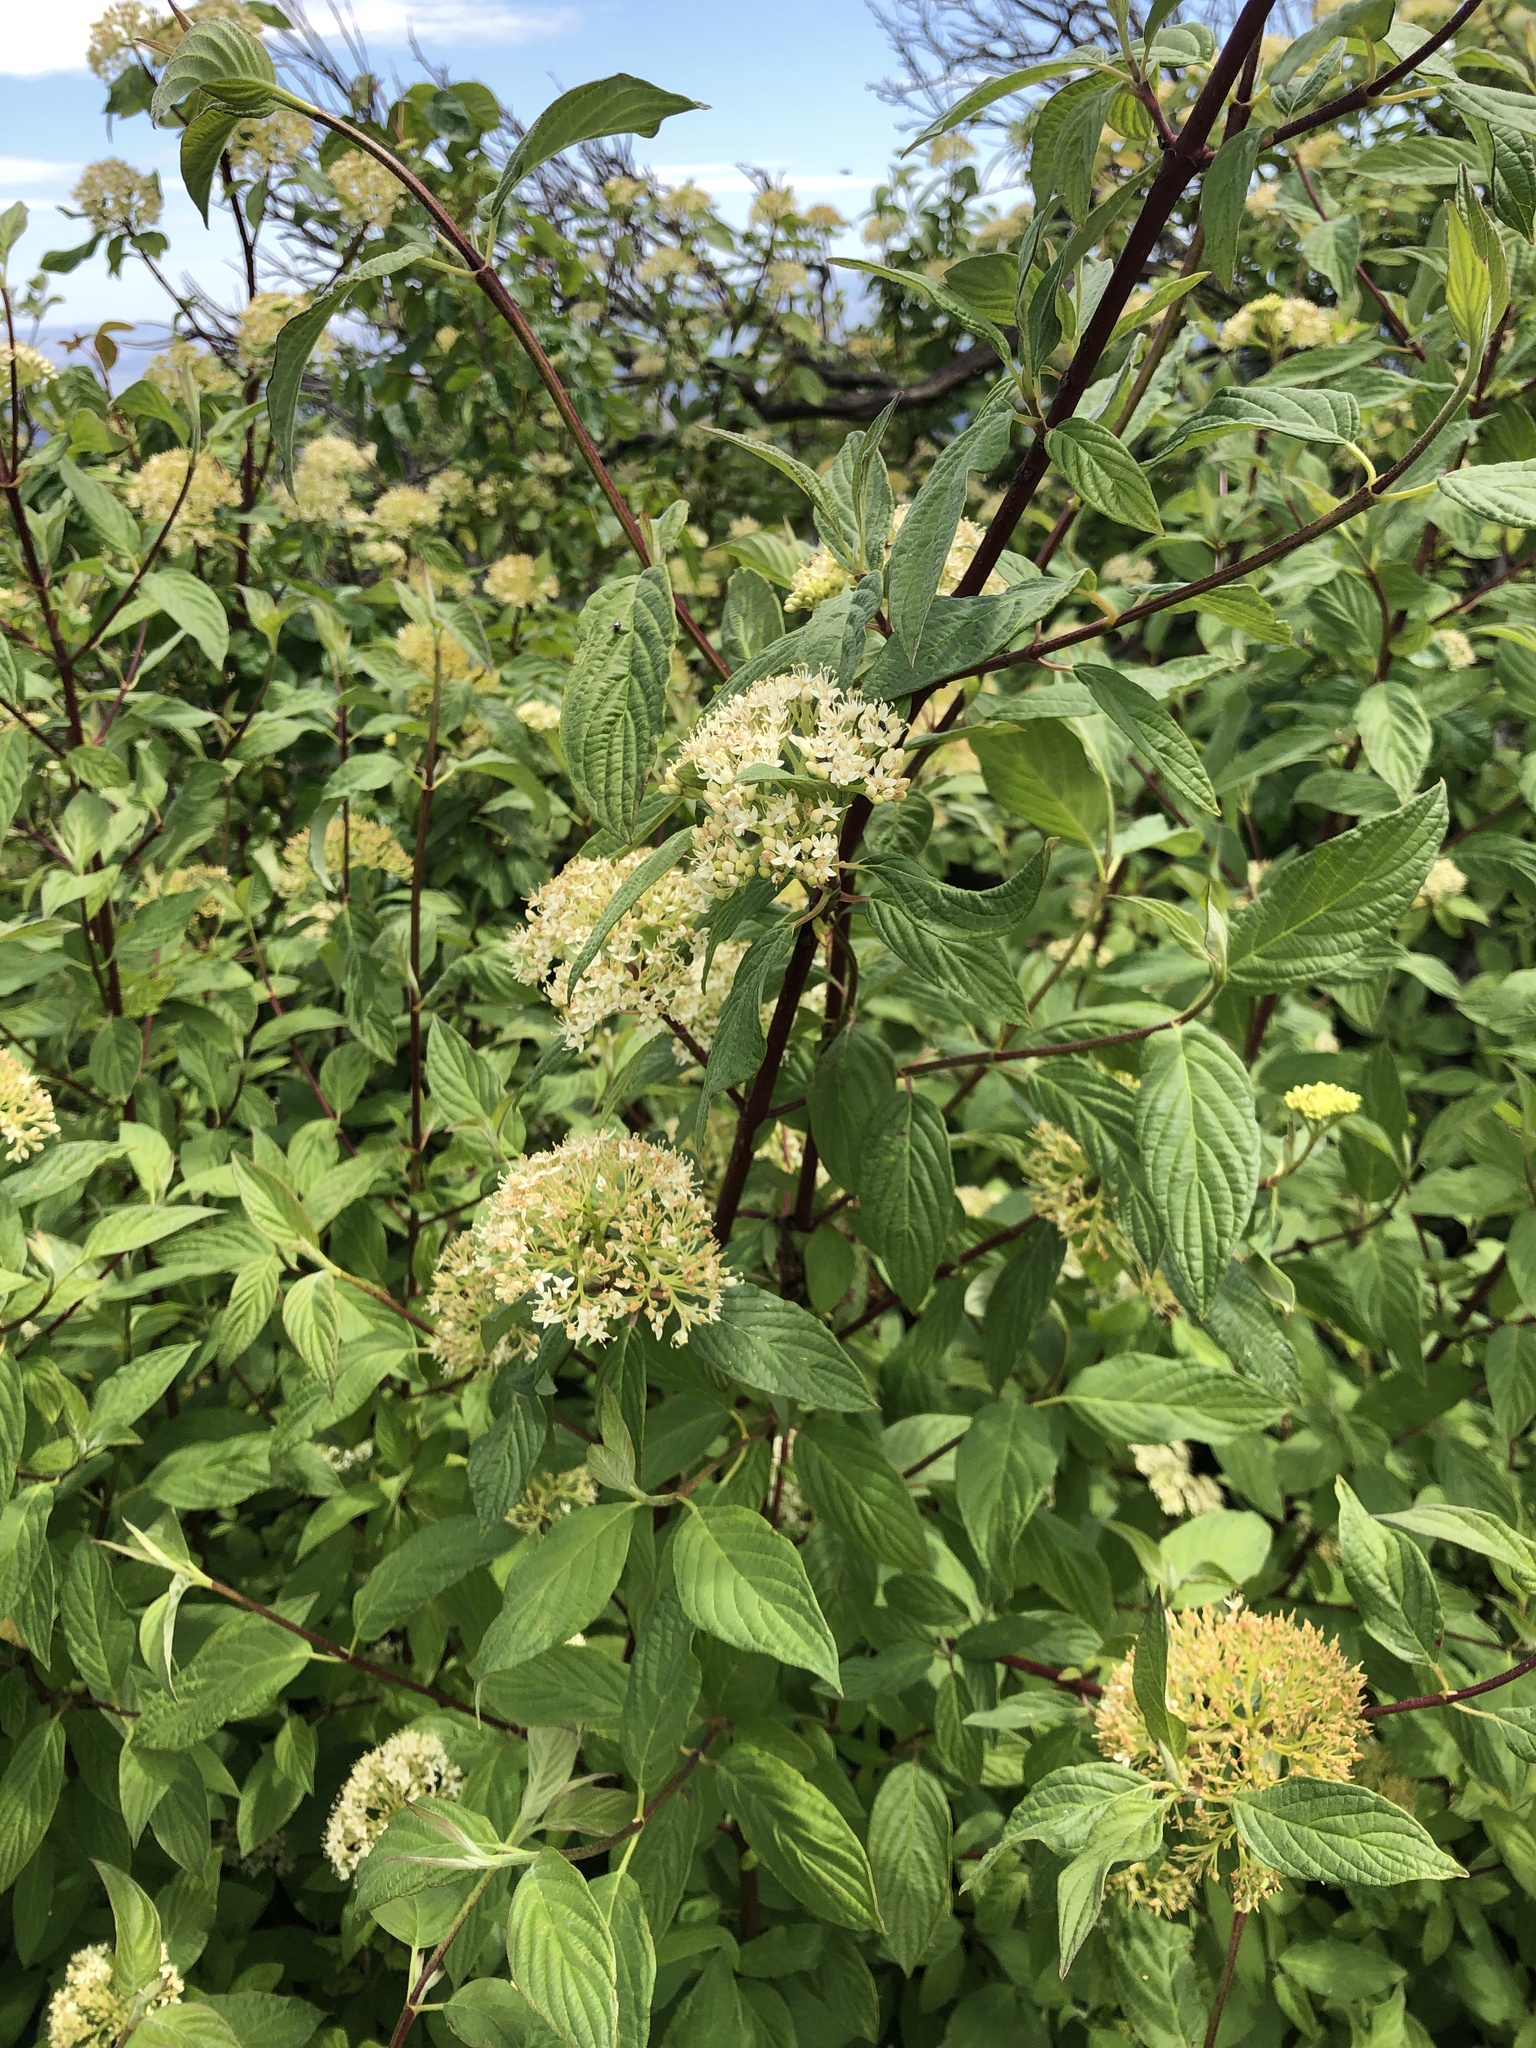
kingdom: Plantae
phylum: Tracheophyta
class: Magnoliopsida
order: Cornales
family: Cornaceae
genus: Cornus
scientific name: Cornus sericea
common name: Red-osier dogwood
